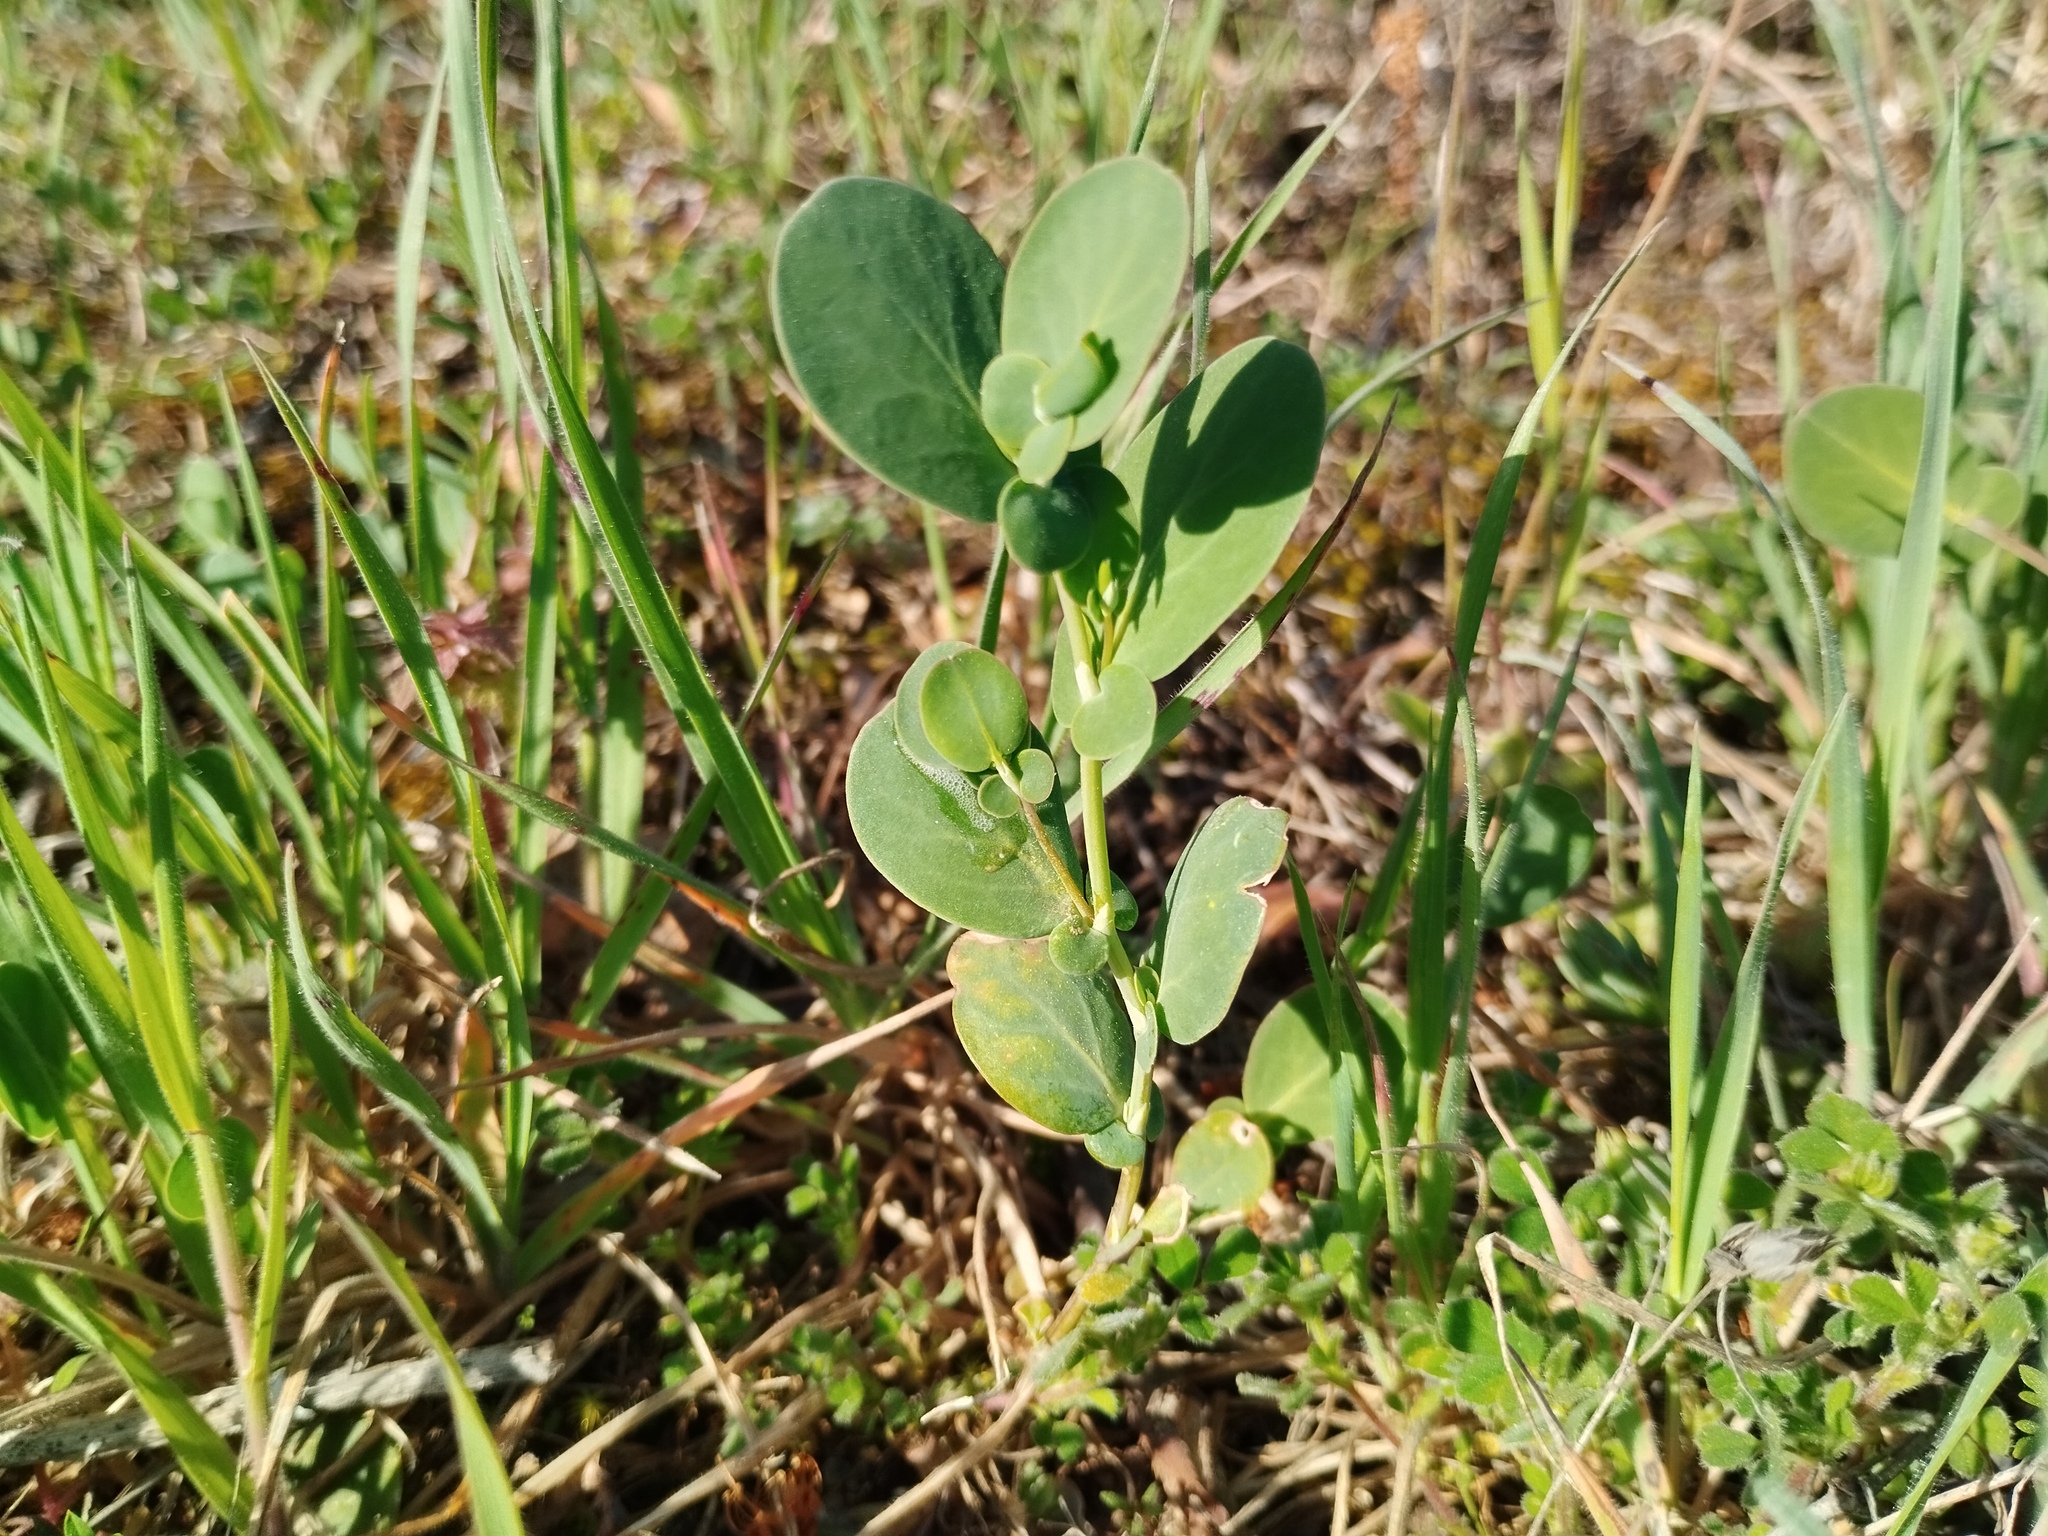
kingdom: Plantae
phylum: Tracheophyta
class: Magnoliopsida
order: Fabales
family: Fabaceae
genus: Coronilla
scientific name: Coronilla scorpioides
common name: Annual scorpion-vetch
